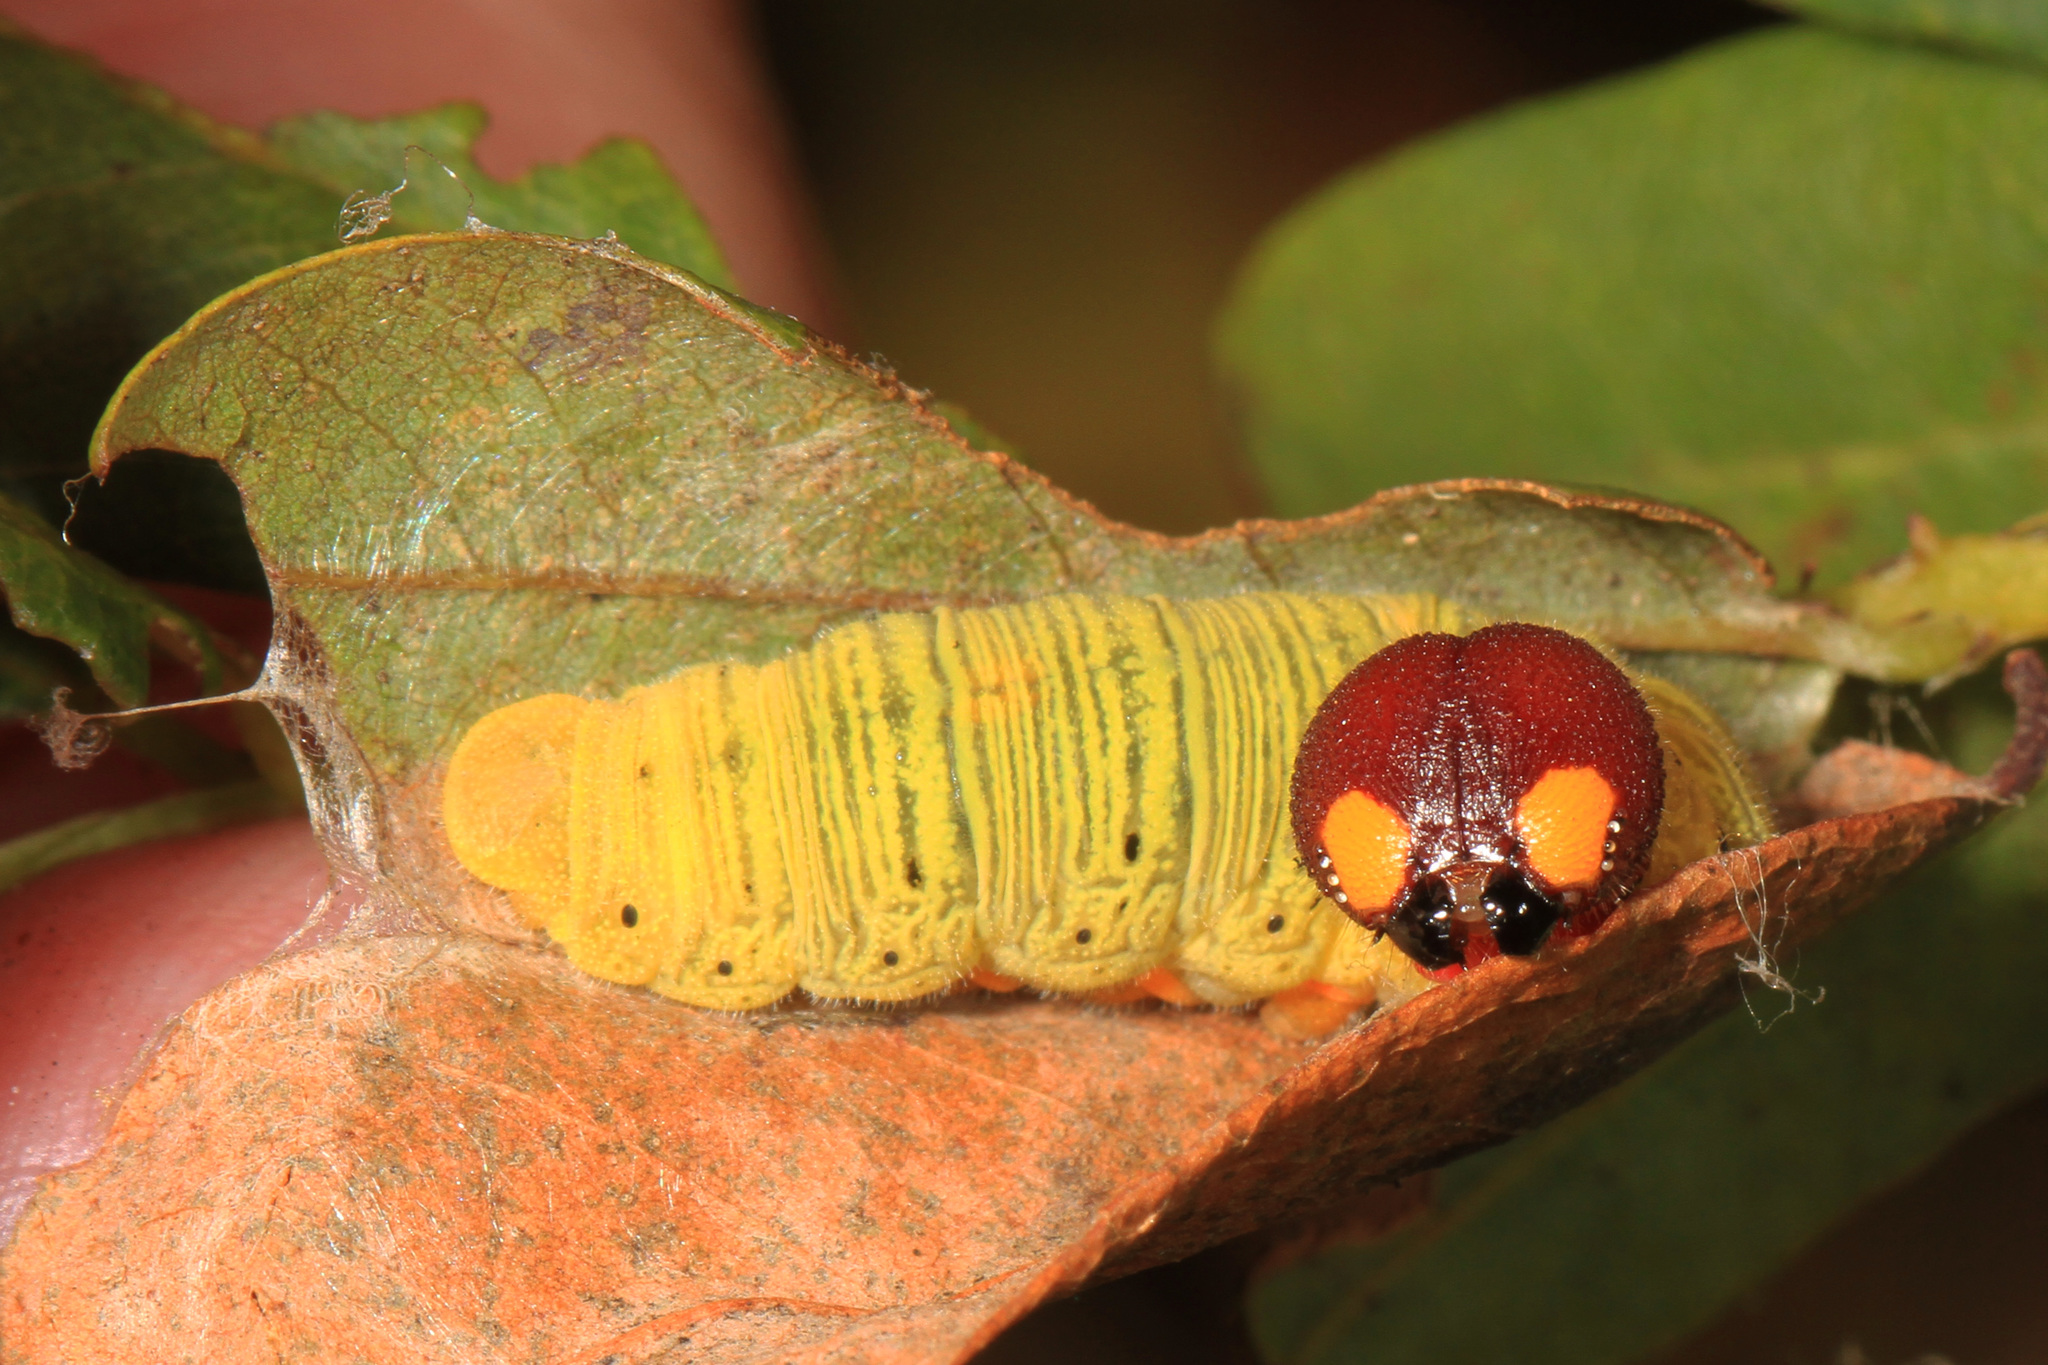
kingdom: Animalia
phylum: Arthropoda
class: Insecta
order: Lepidoptera
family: Hesperiidae
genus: Epargyreus
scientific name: Epargyreus clarus
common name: Silver-spotted skipper
